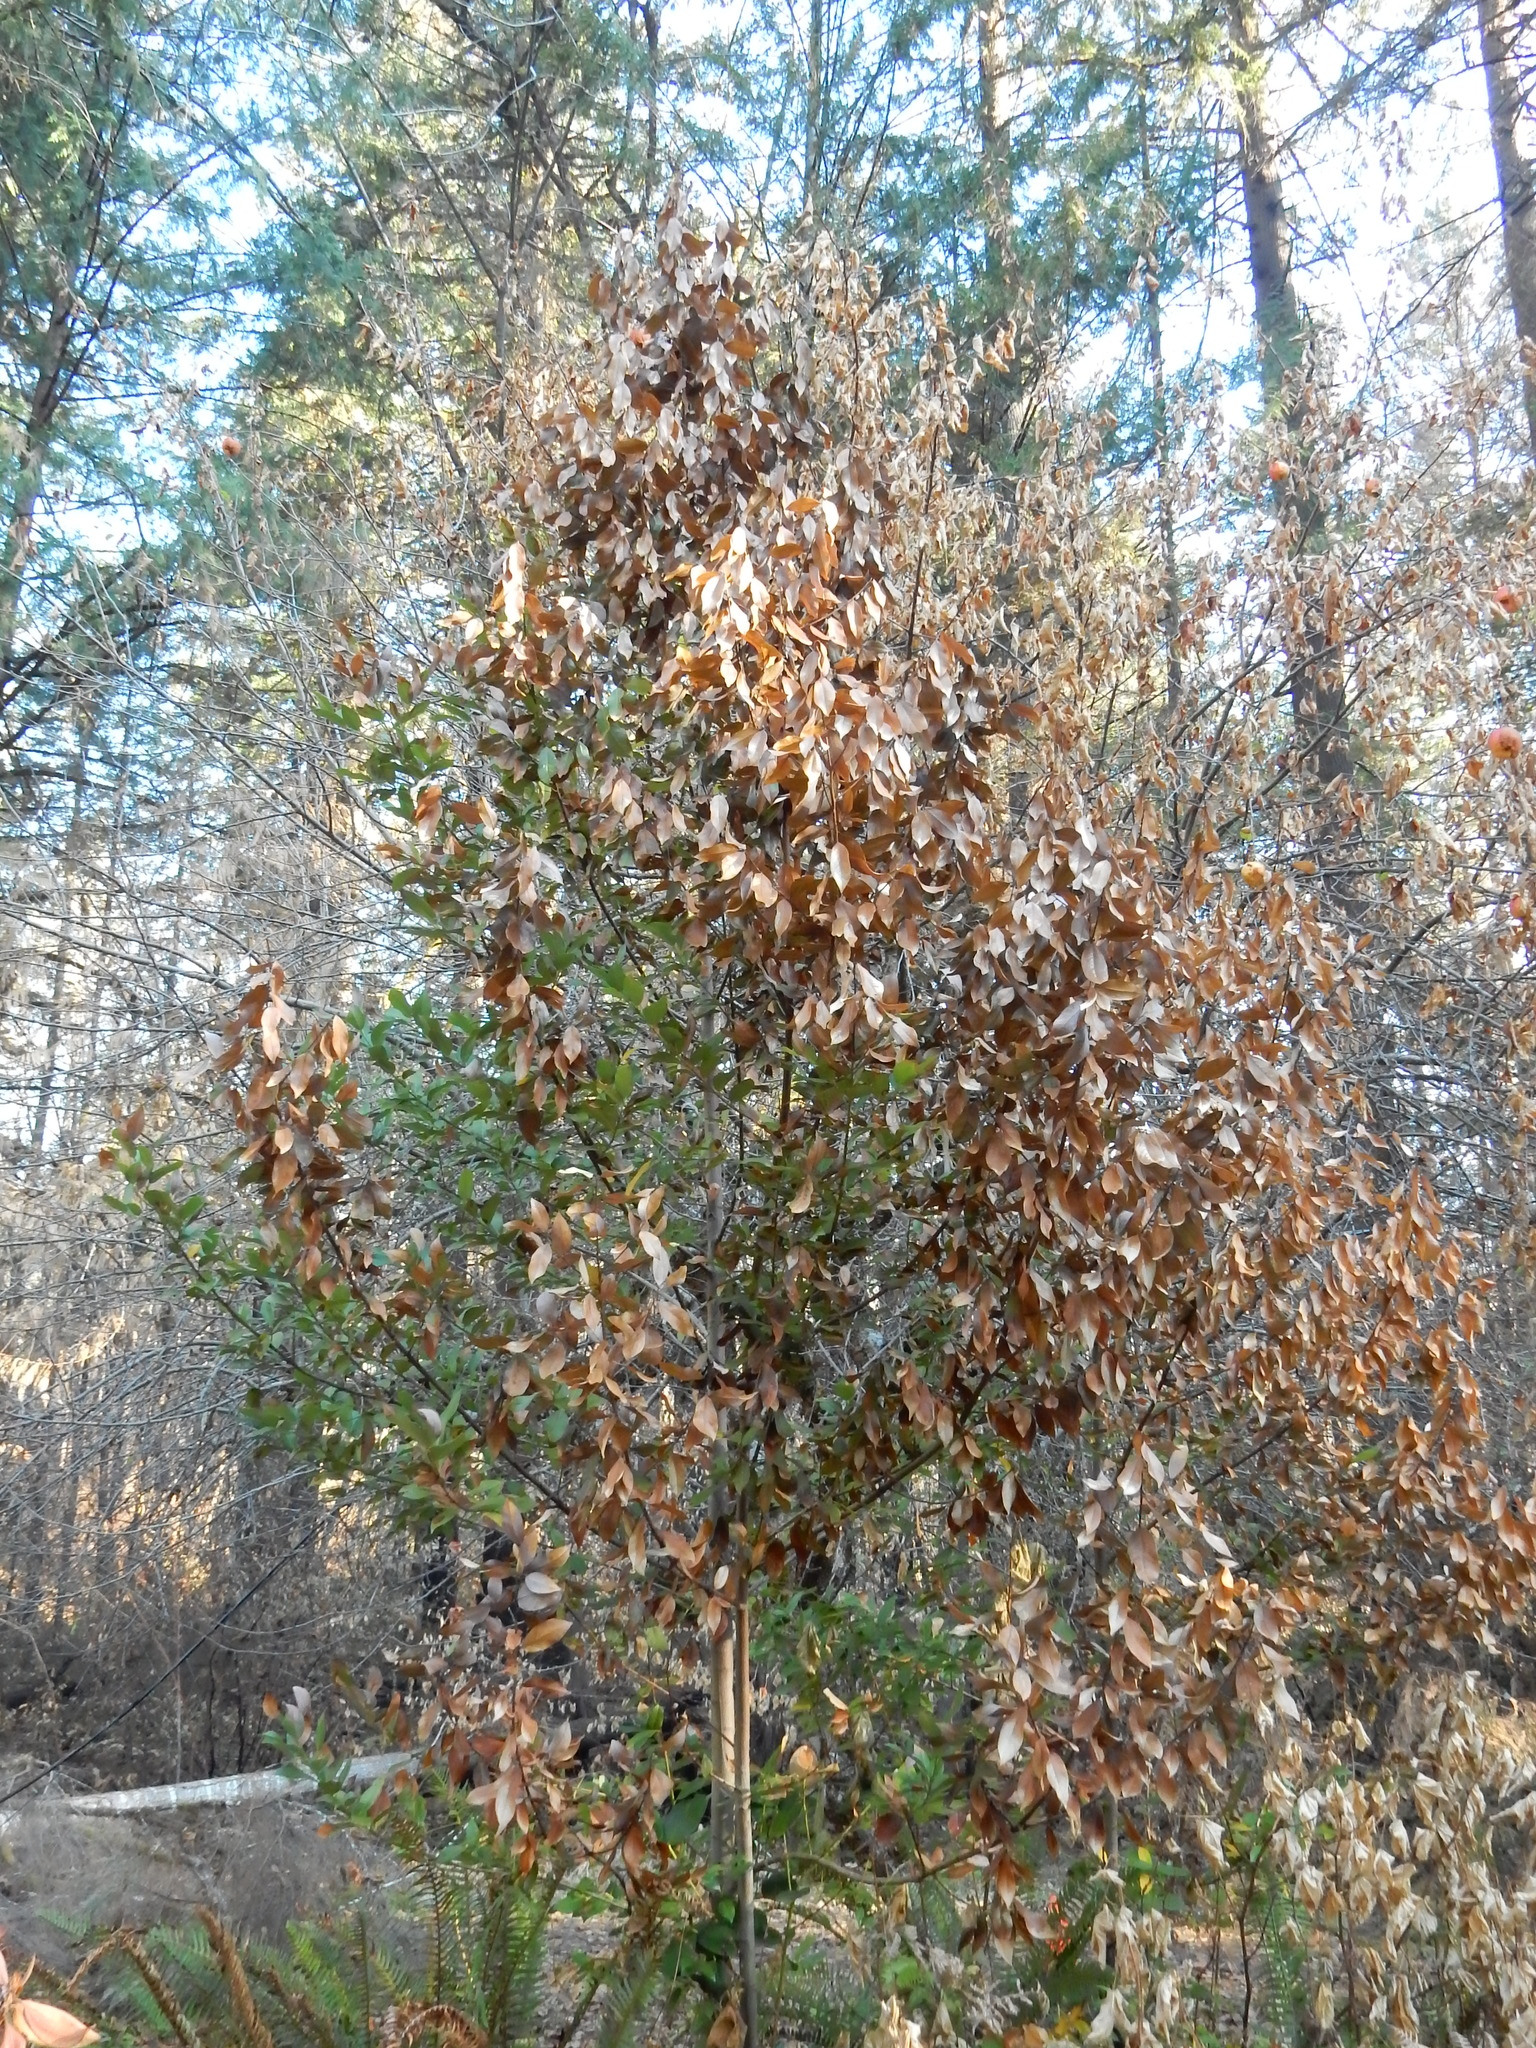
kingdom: Plantae
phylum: Tracheophyta
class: Magnoliopsida
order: Laurales
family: Lauraceae
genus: Umbellularia
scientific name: Umbellularia californica
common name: California bay
